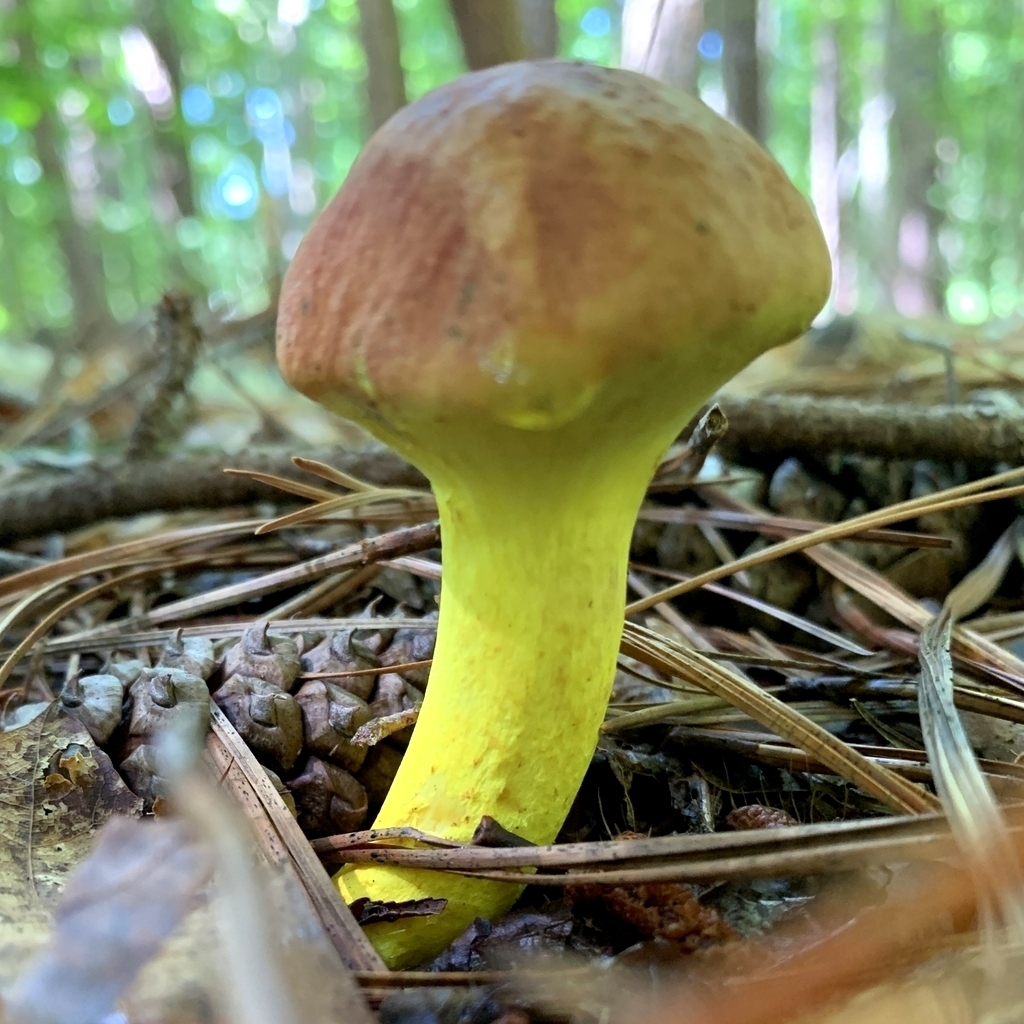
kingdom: Fungi
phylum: Basidiomycota
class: Agaricomycetes
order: Boletales
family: Boletaceae
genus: Pulveroboletus
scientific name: Pulveroboletus ravenelii
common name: Powdery sulfur bolete
